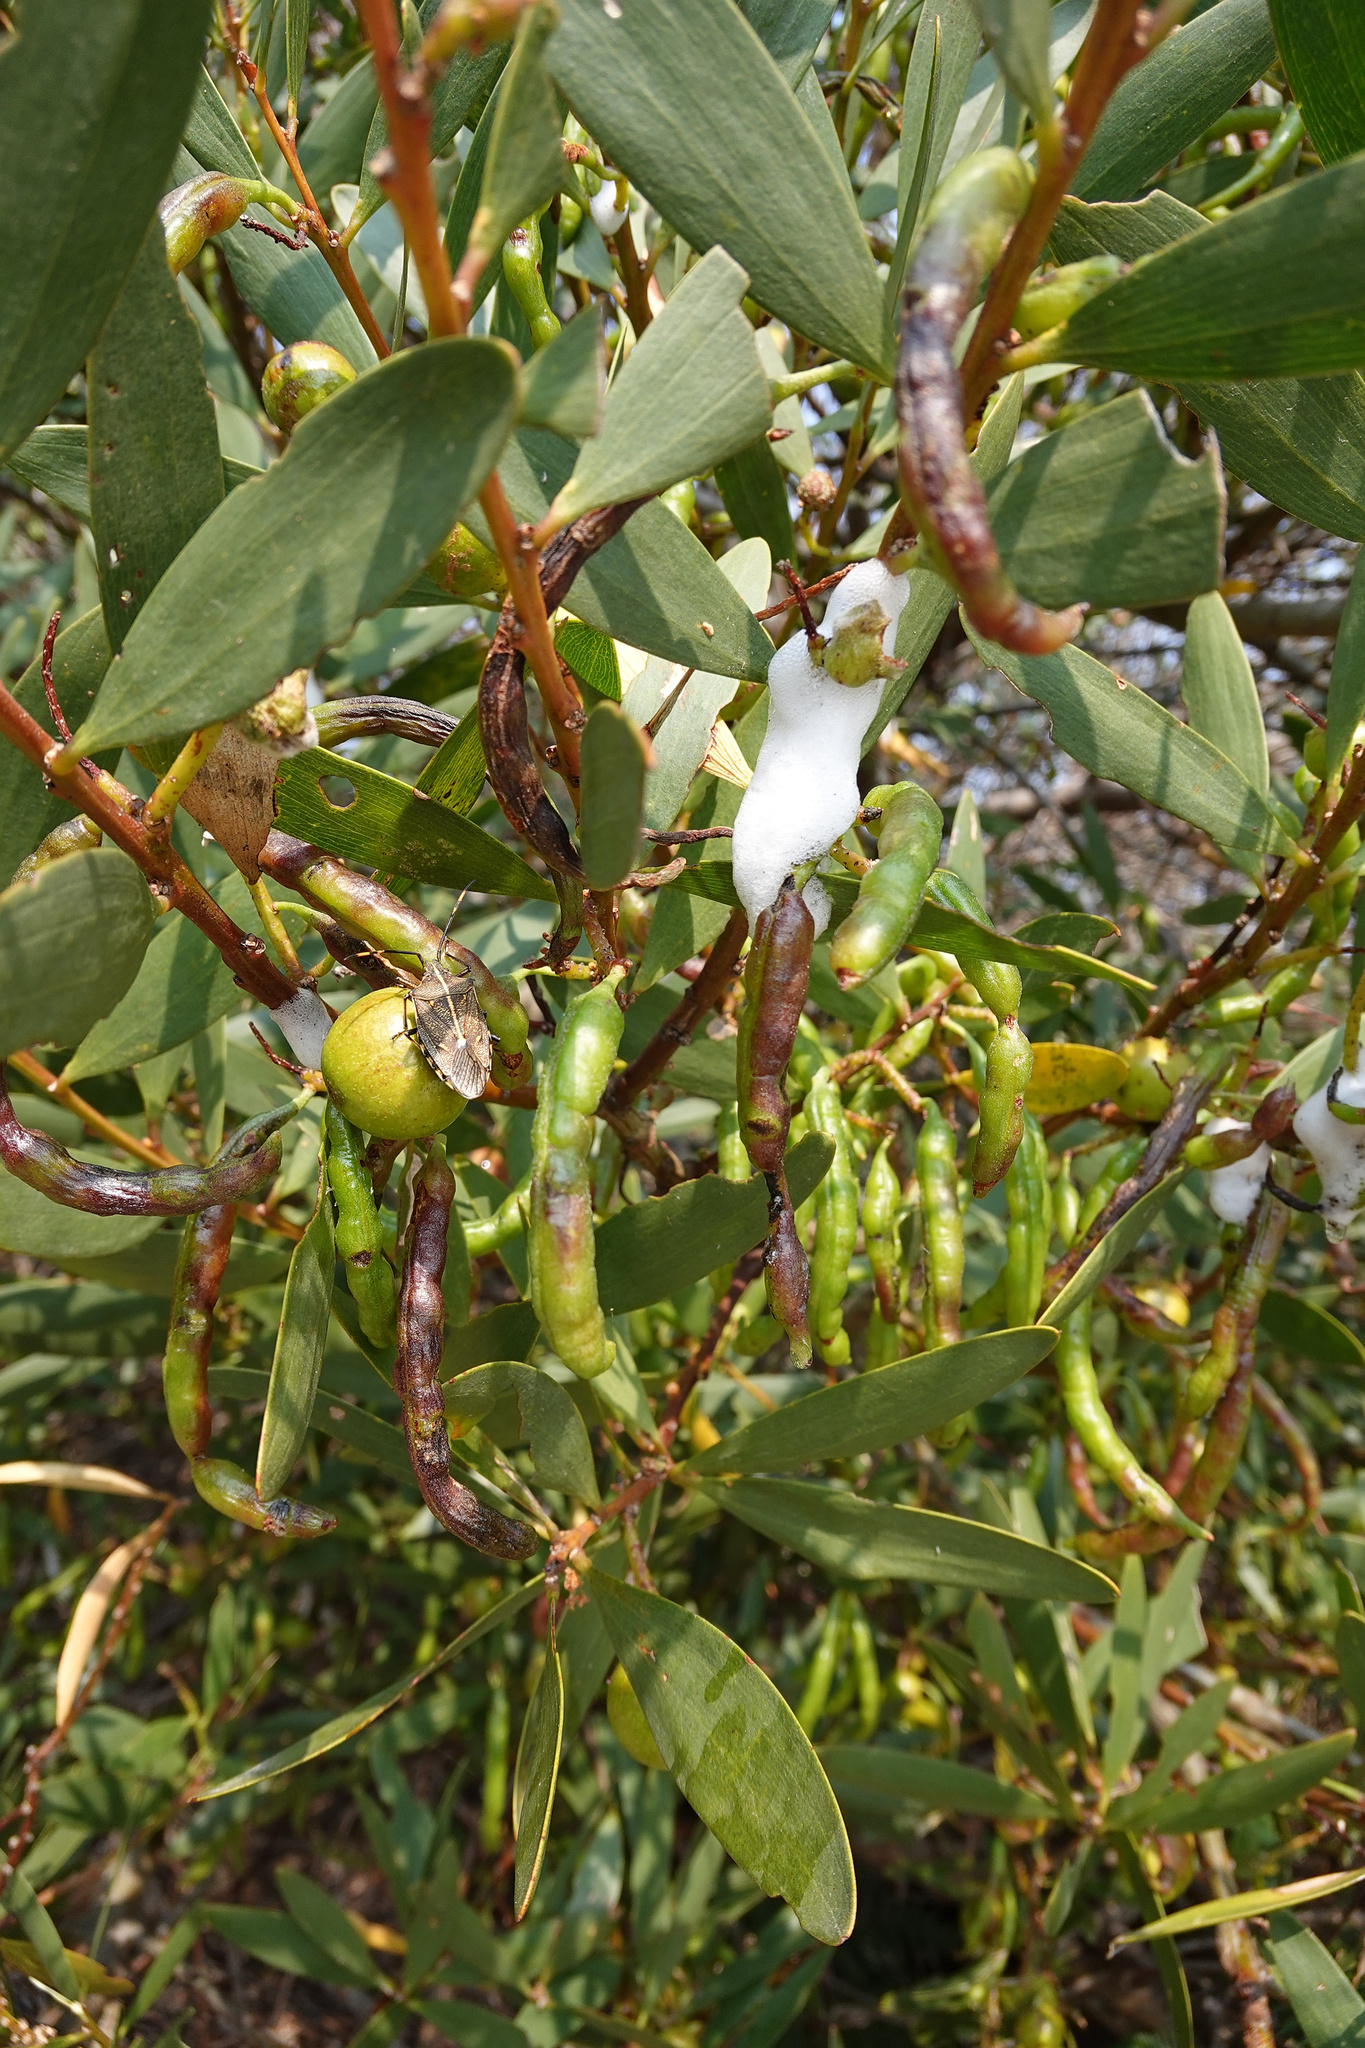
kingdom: Plantae
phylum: Tracheophyta
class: Magnoliopsida
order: Fabales
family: Fabaceae
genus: Acacia
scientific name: Acacia longifolia
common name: Sydney golden wattle
